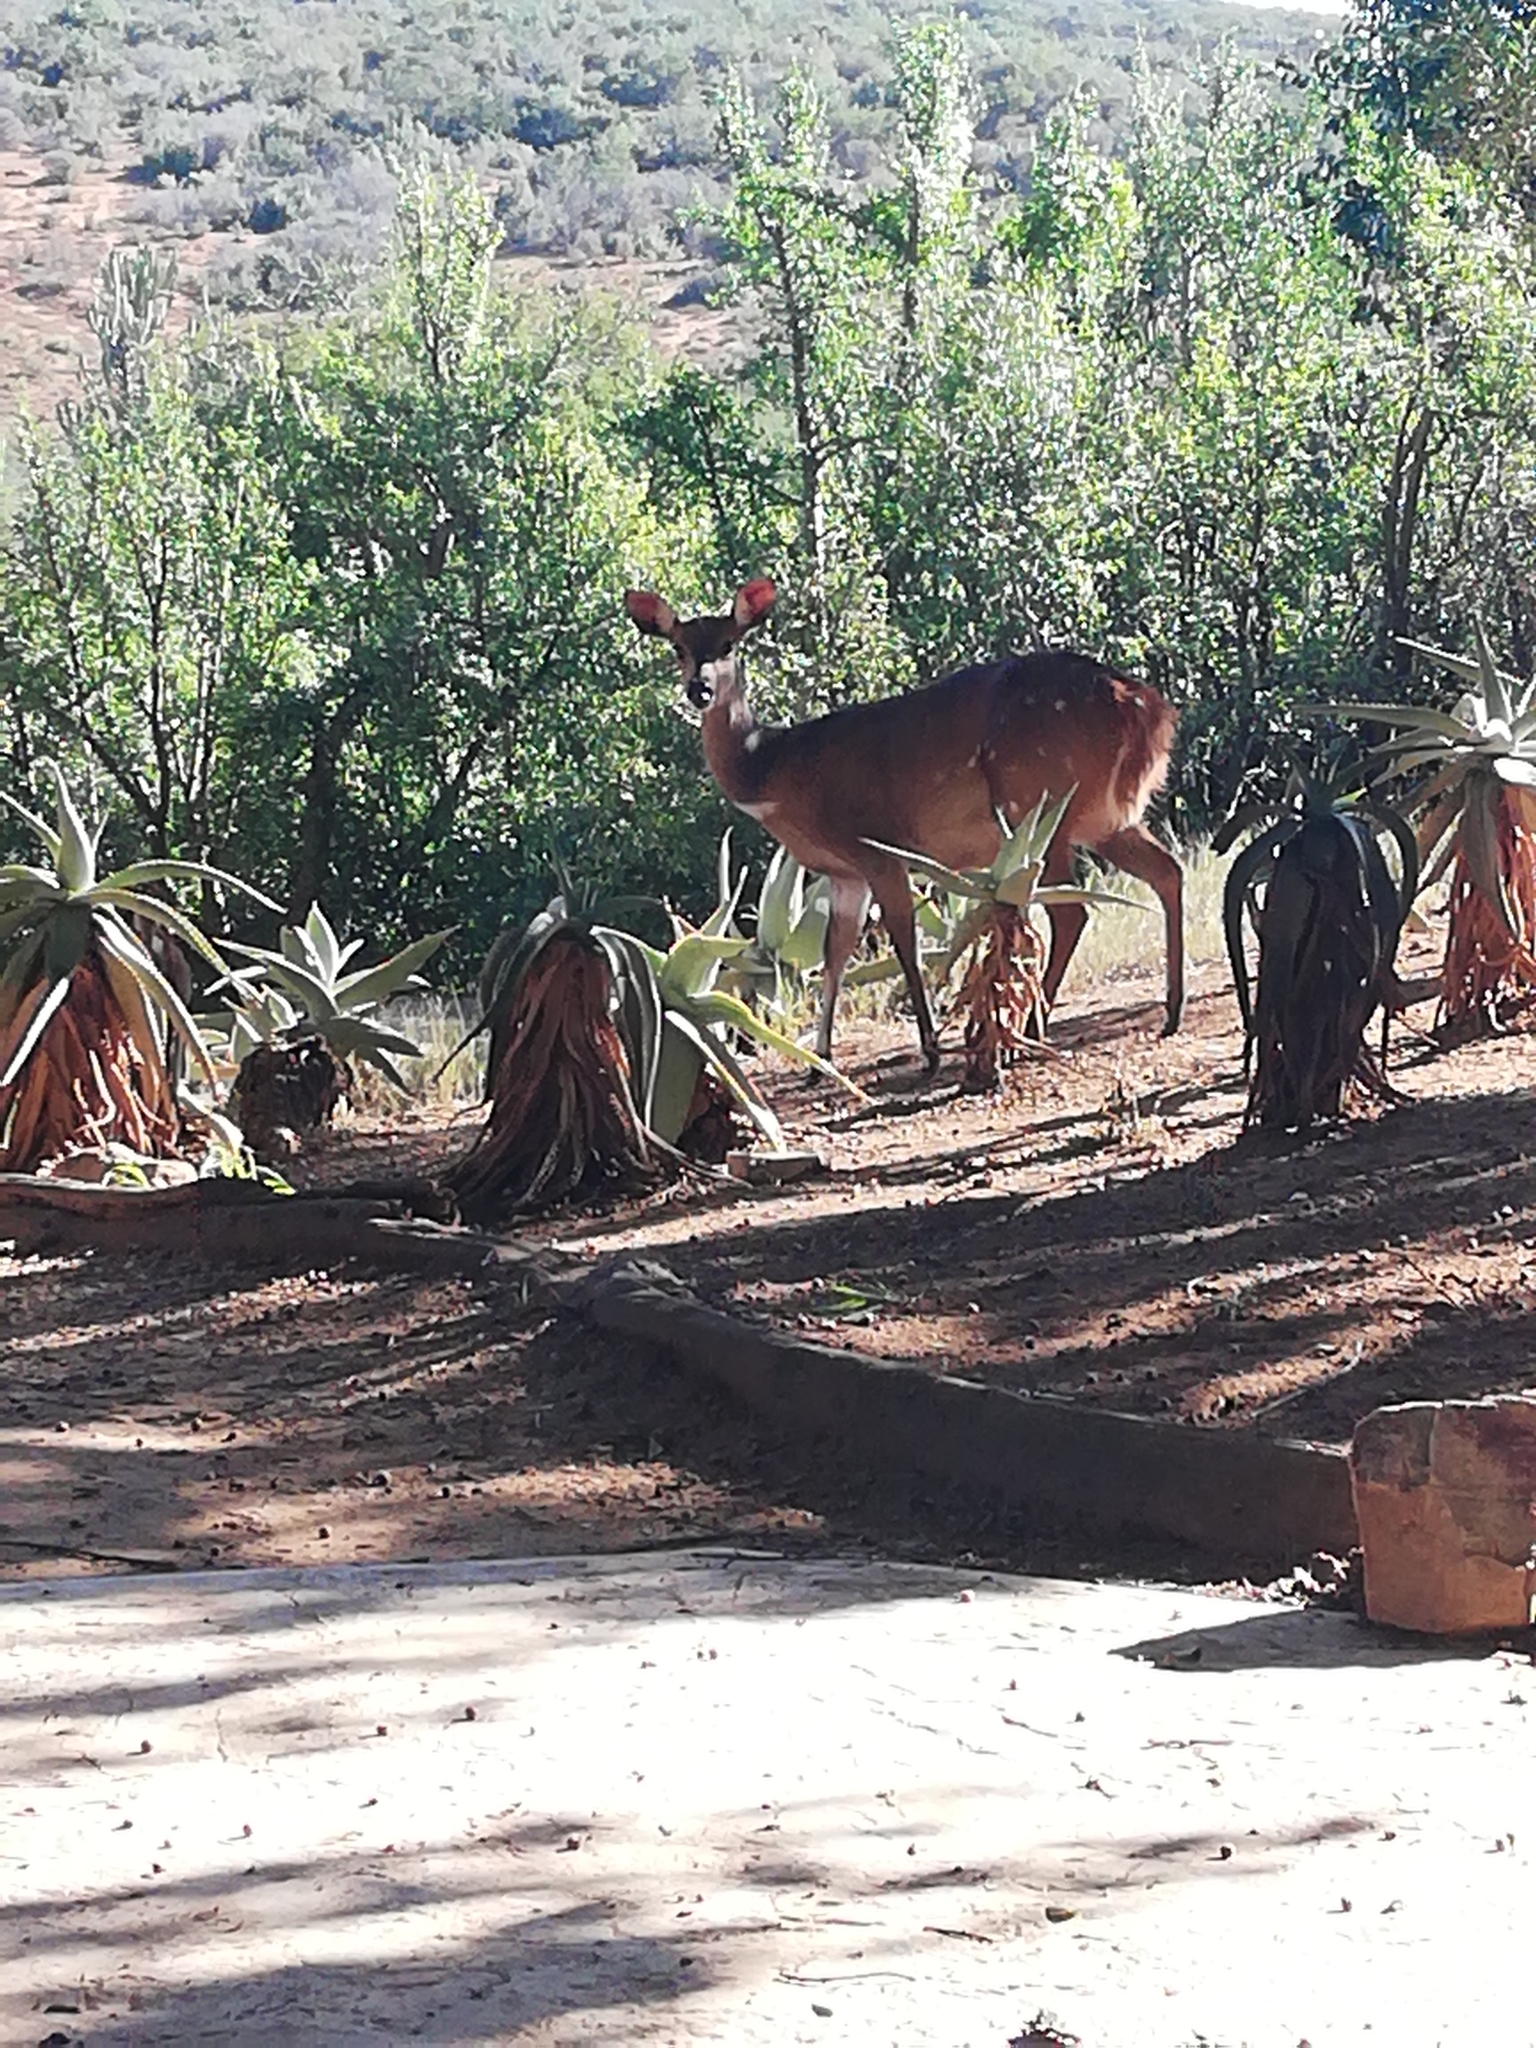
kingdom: Animalia
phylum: Chordata
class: Mammalia
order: Artiodactyla
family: Bovidae
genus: Tragelaphus
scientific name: Tragelaphus scriptus
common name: Bushbuck
